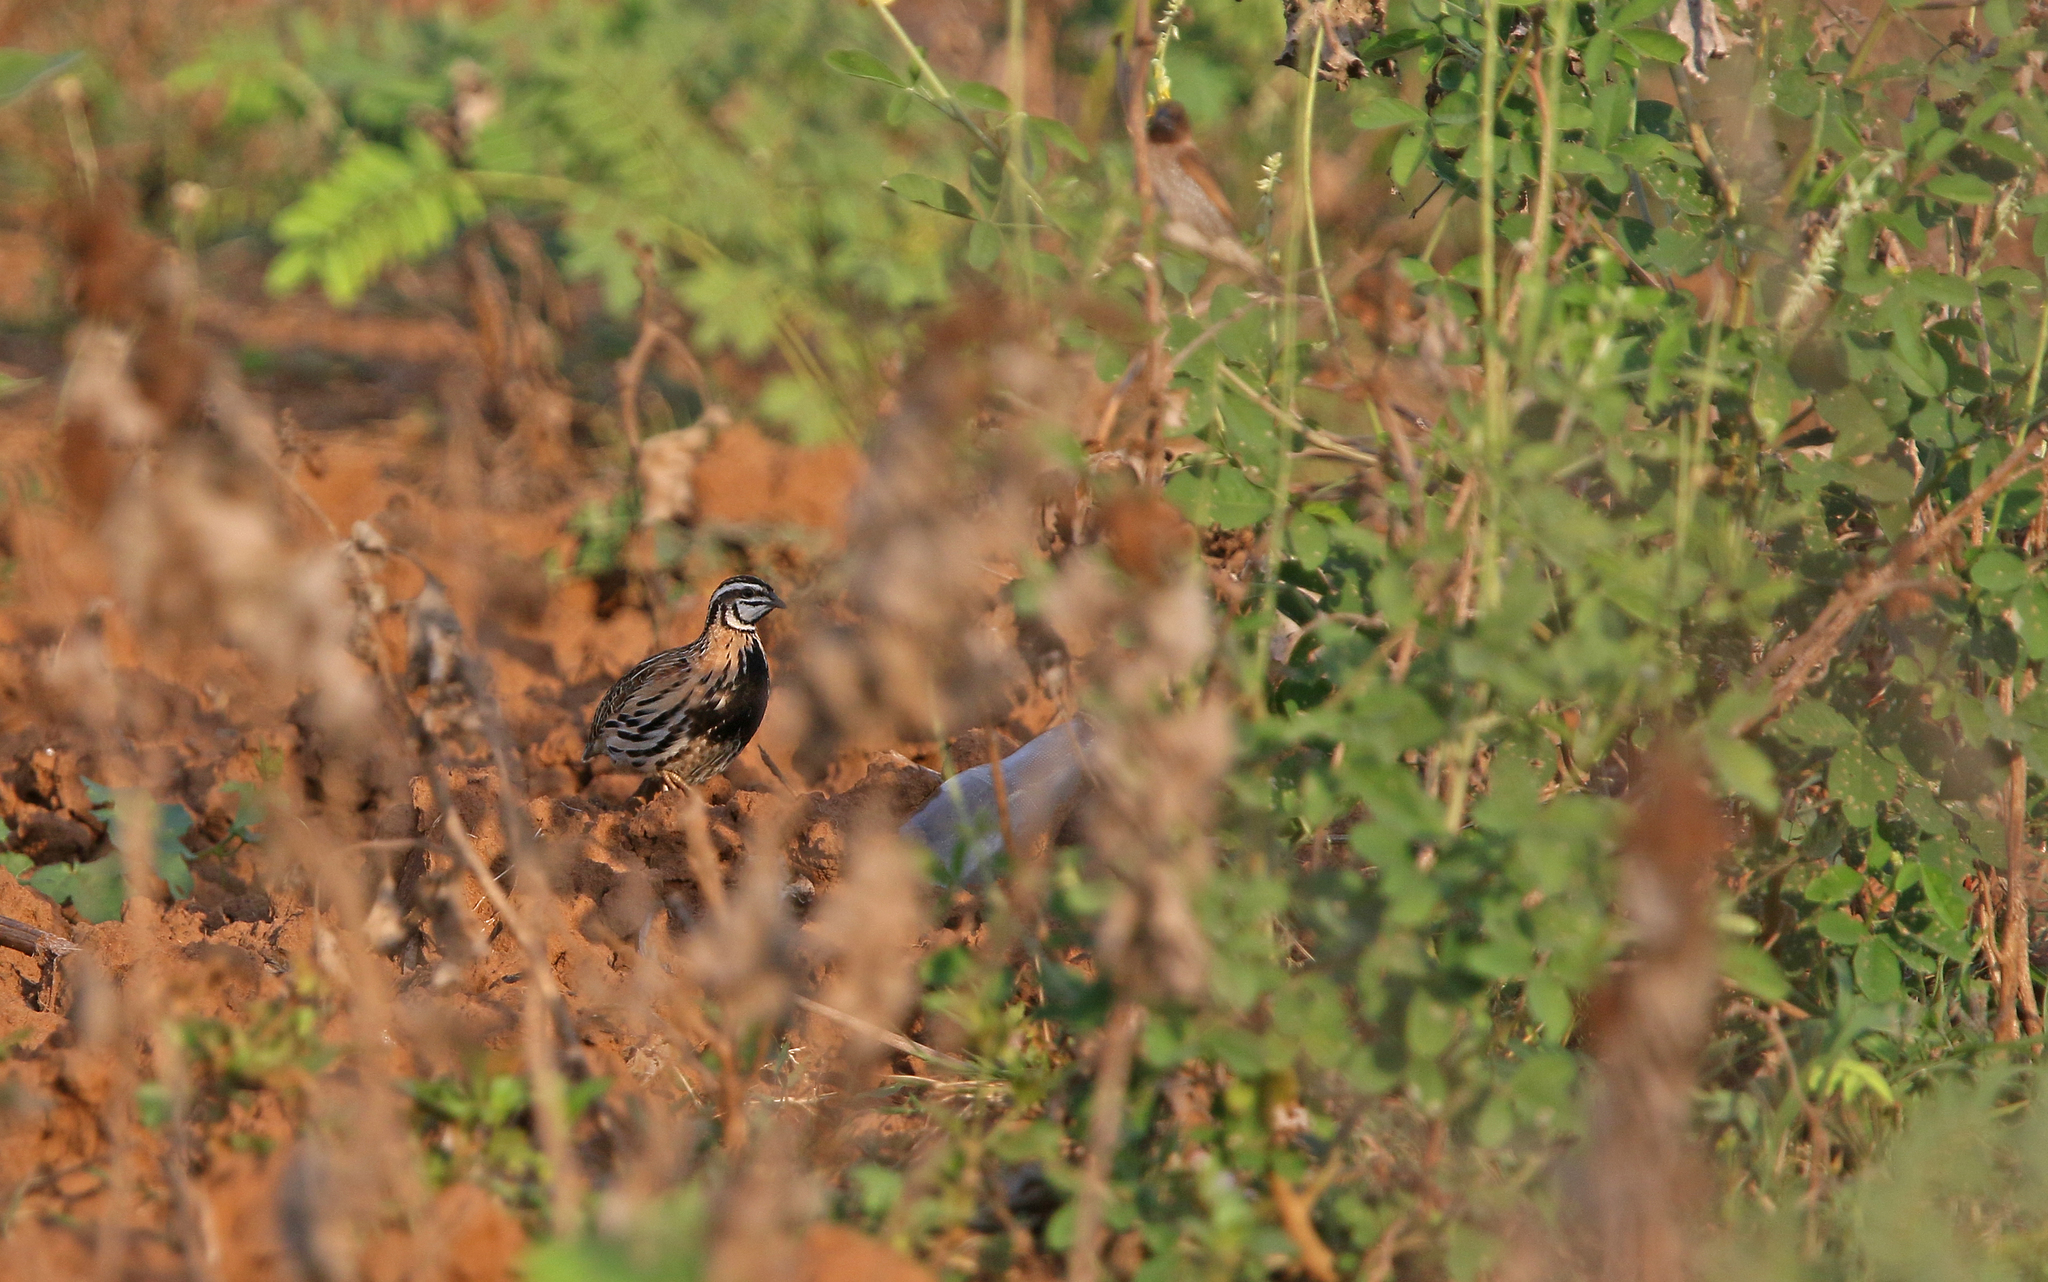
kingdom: Animalia
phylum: Chordata
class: Aves
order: Galliformes
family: Phasianidae
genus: Coturnix
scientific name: Coturnix coromandelica
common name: Rain quail
